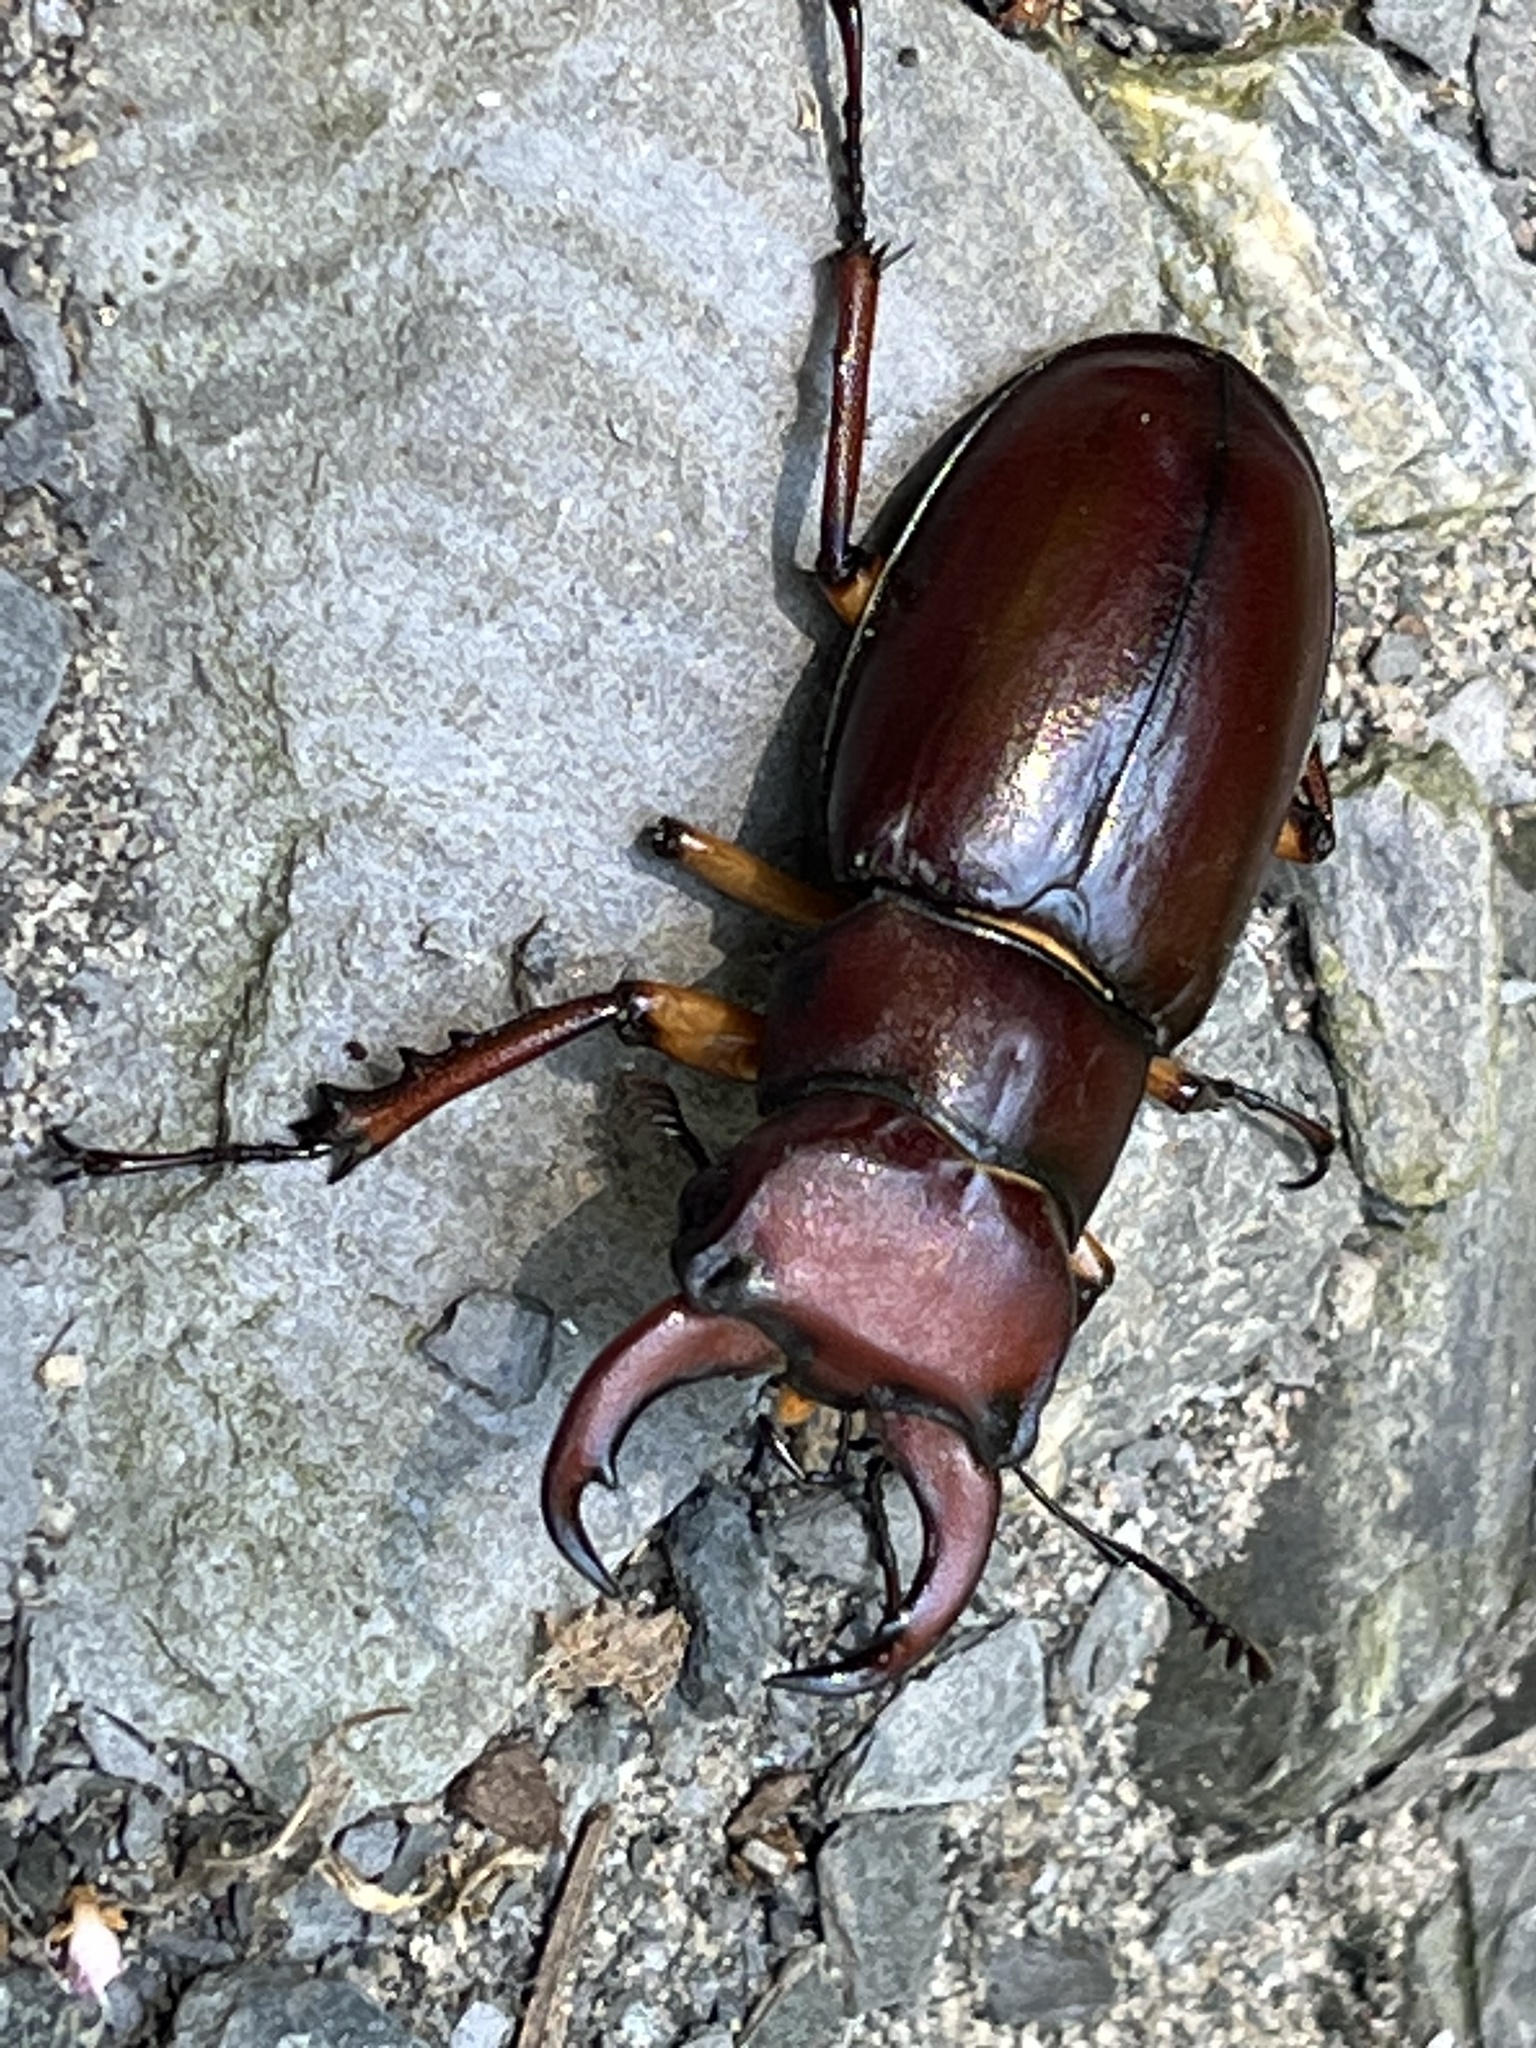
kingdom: Animalia
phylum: Arthropoda
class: Insecta
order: Coleoptera
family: Lucanidae
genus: Lucanus
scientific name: Lucanus capreolus
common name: Stag beetle
